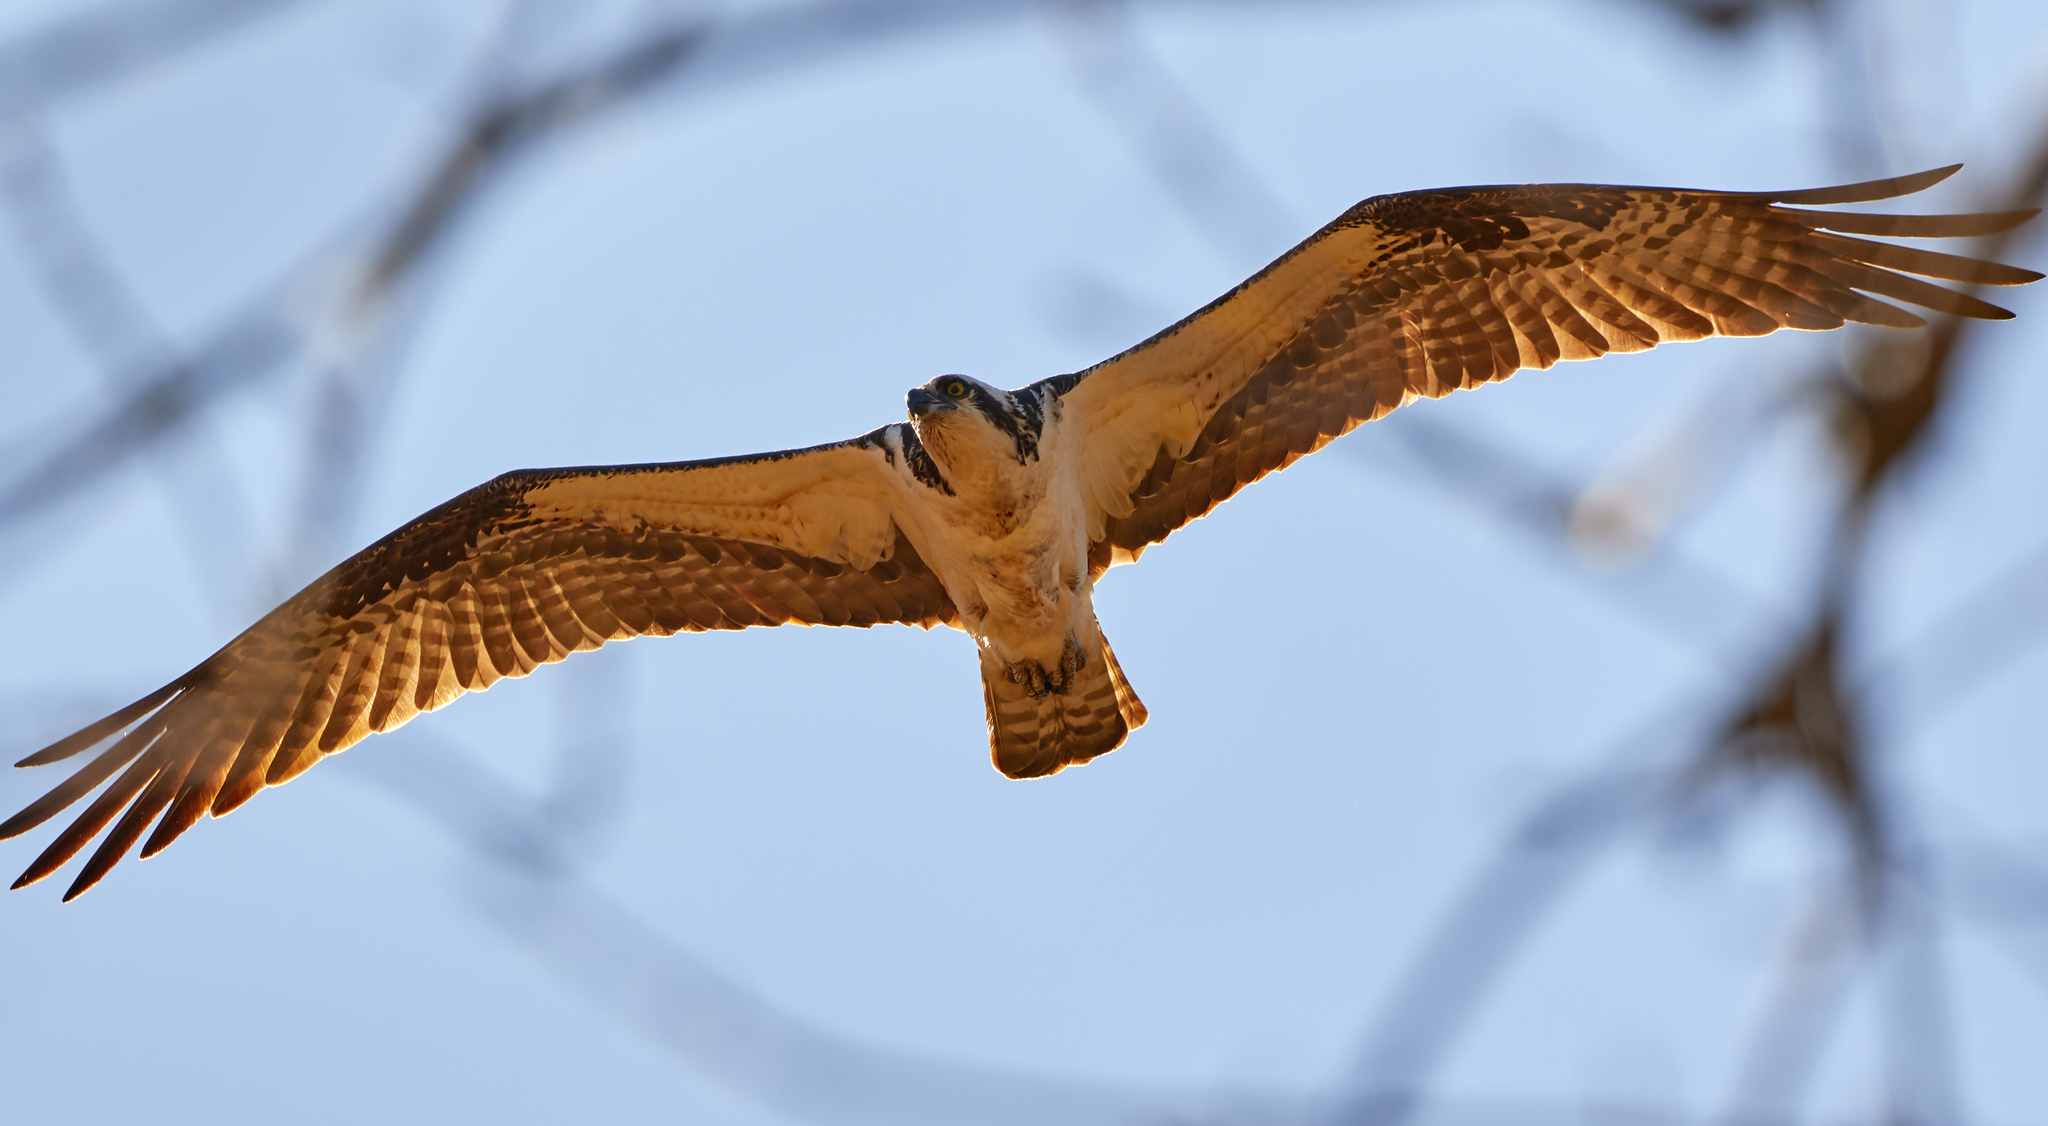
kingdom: Animalia
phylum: Chordata
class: Aves
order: Accipitriformes
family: Pandionidae
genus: Pandion
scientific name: Pandion haliaetus
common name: Osprey
